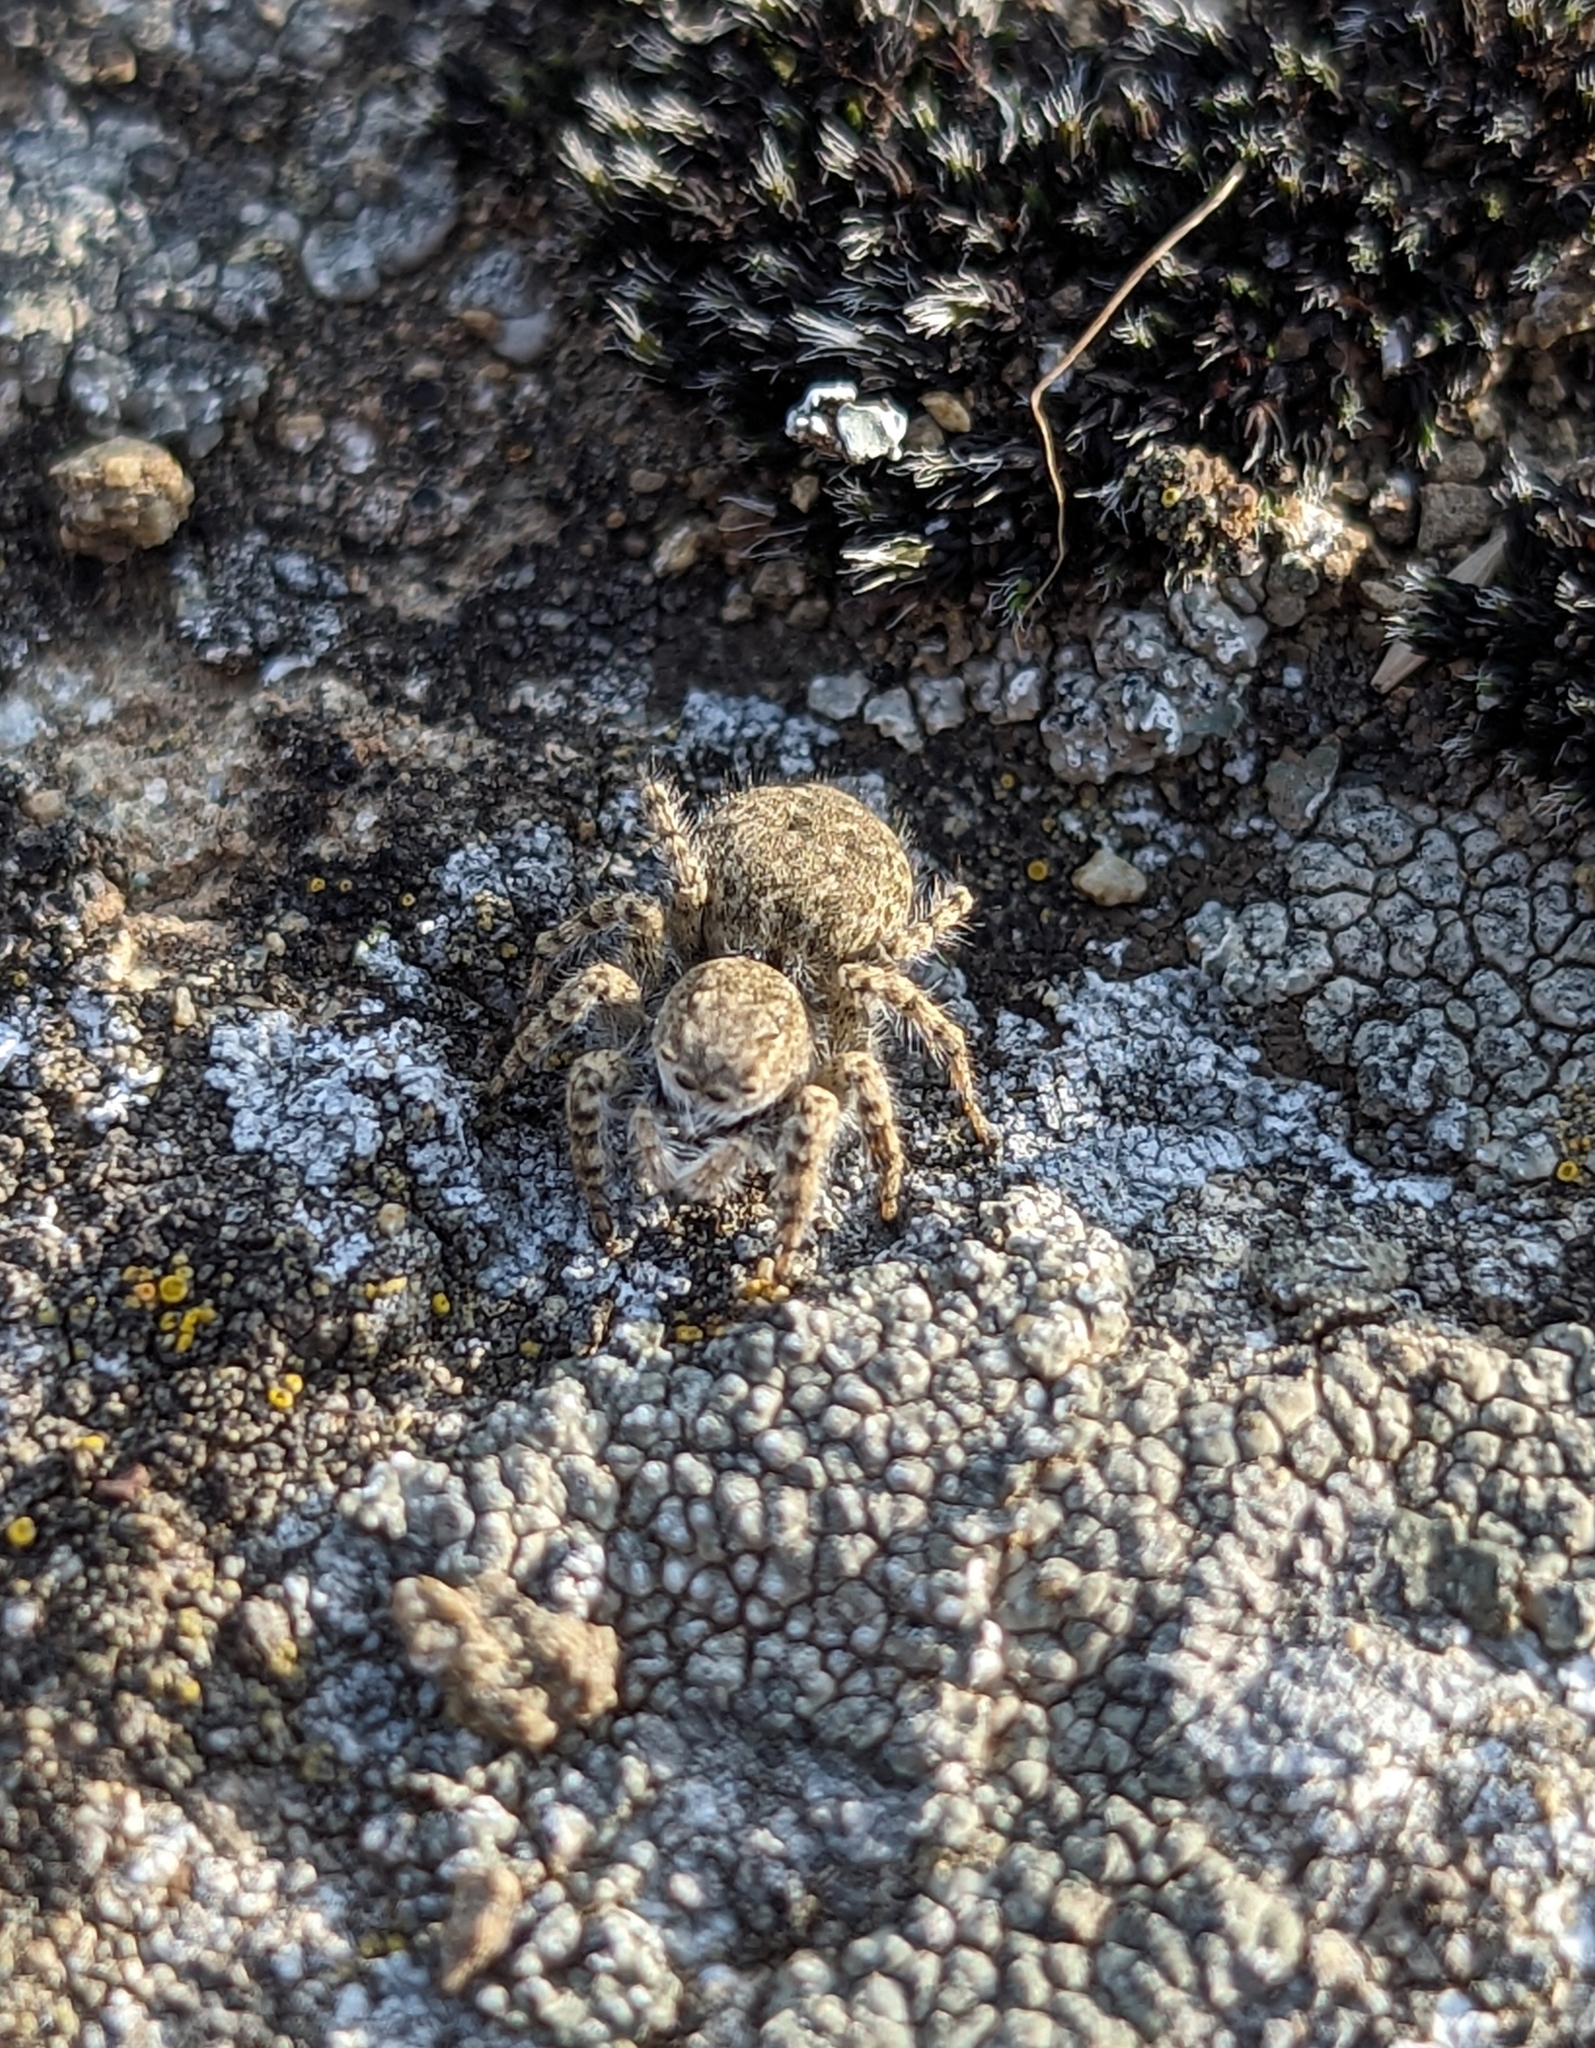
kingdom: Animalia
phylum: Arthropoda
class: Arachnida
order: Araneae
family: Salticidae
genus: Asianellus
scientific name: Asianellus festivus
